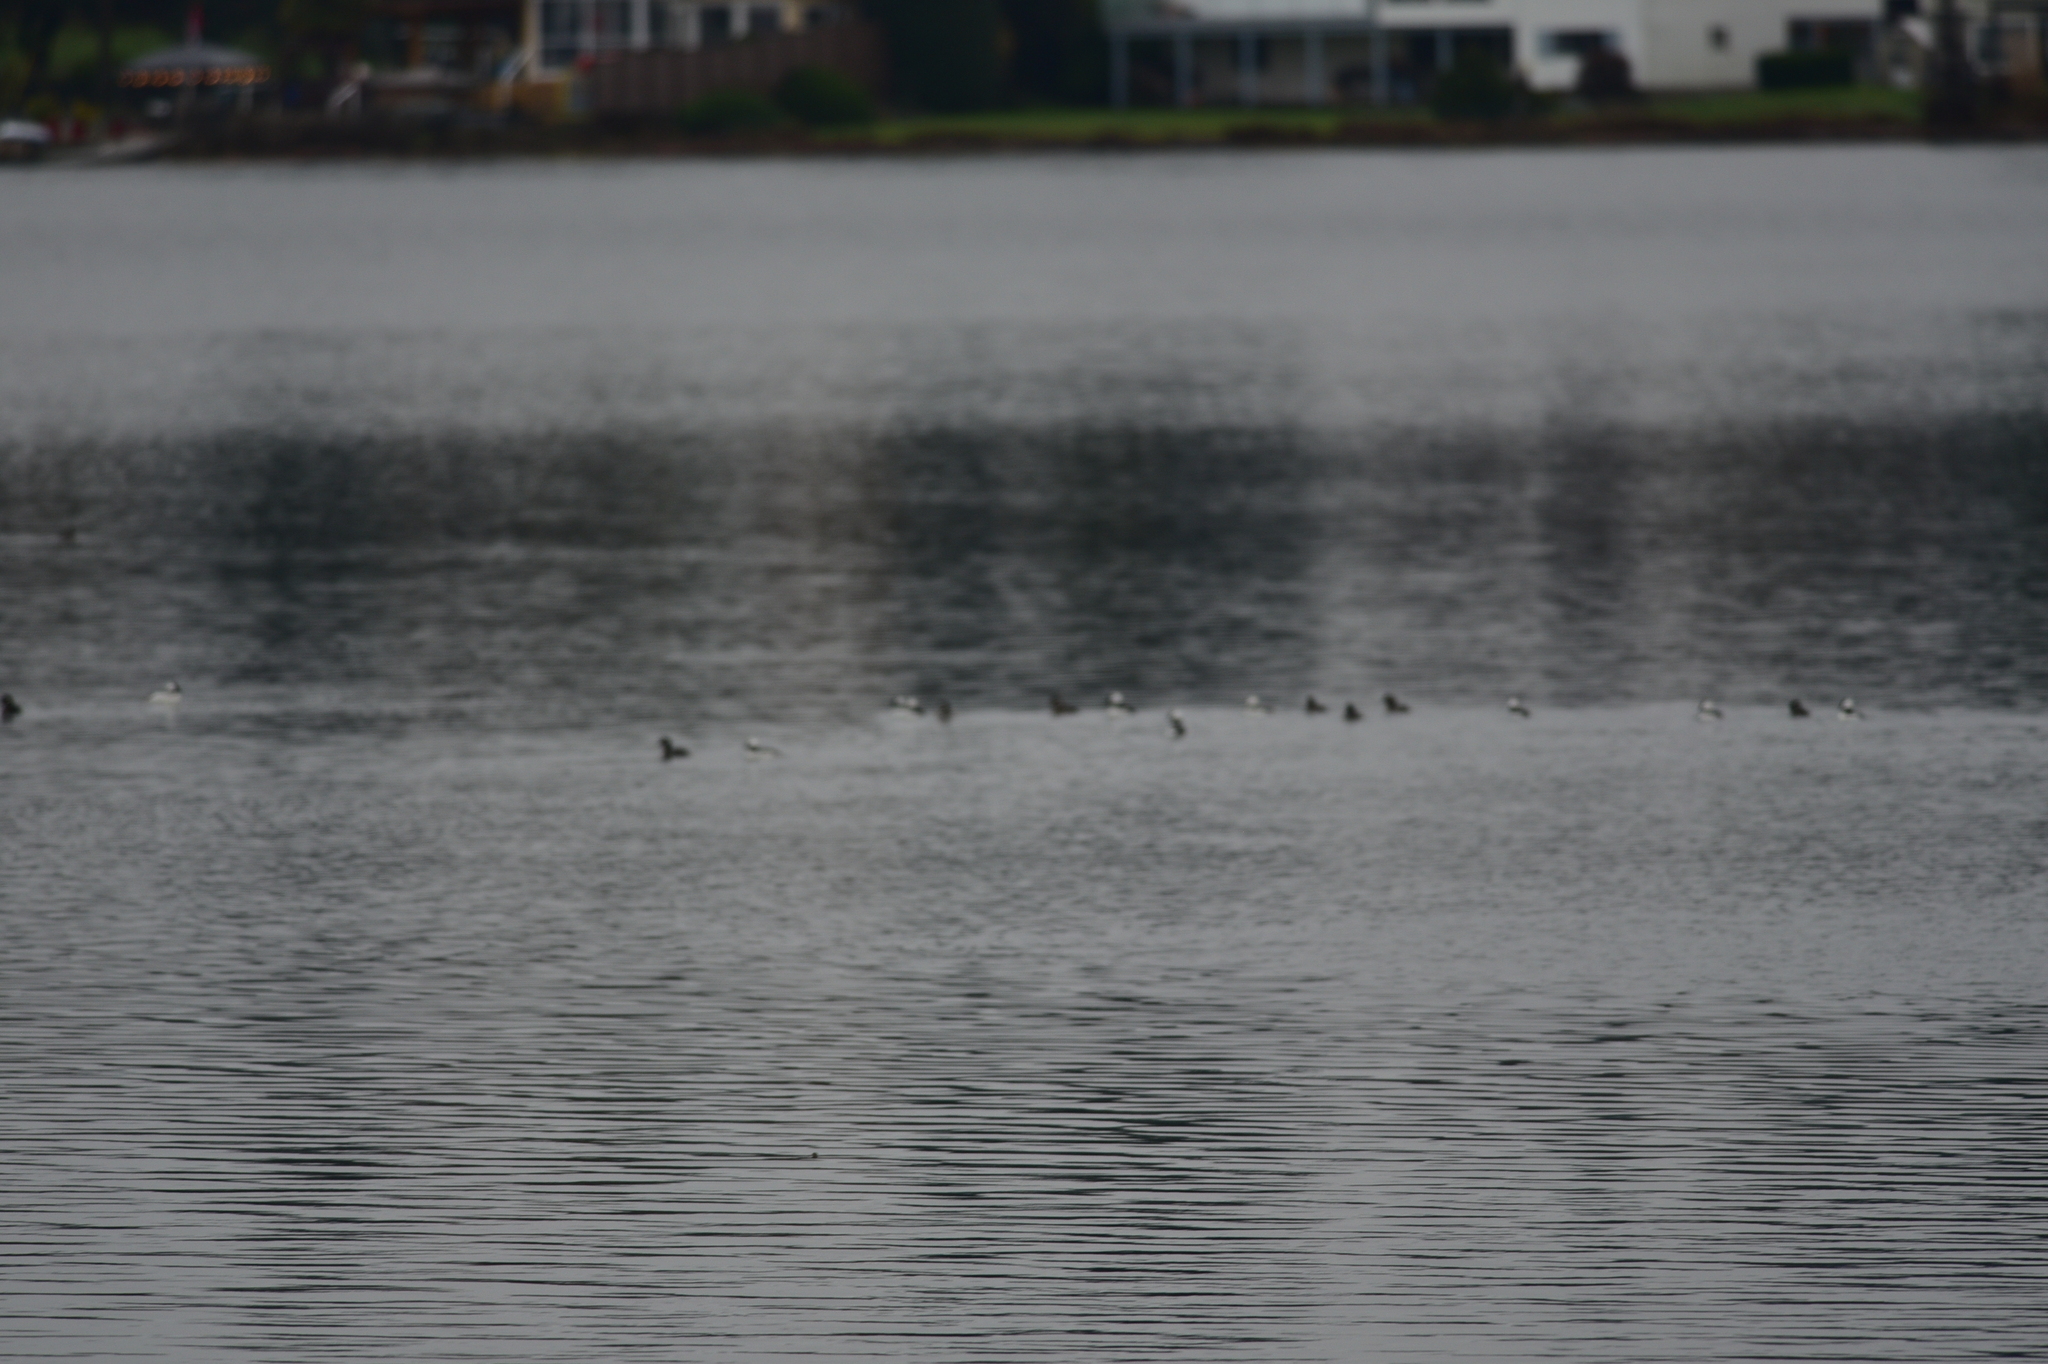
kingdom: Animalia
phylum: Chordata
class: Aves
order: Anseriformes
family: Anatidae
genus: Bucephala
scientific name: Bucephala albeola
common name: Bufflehead
